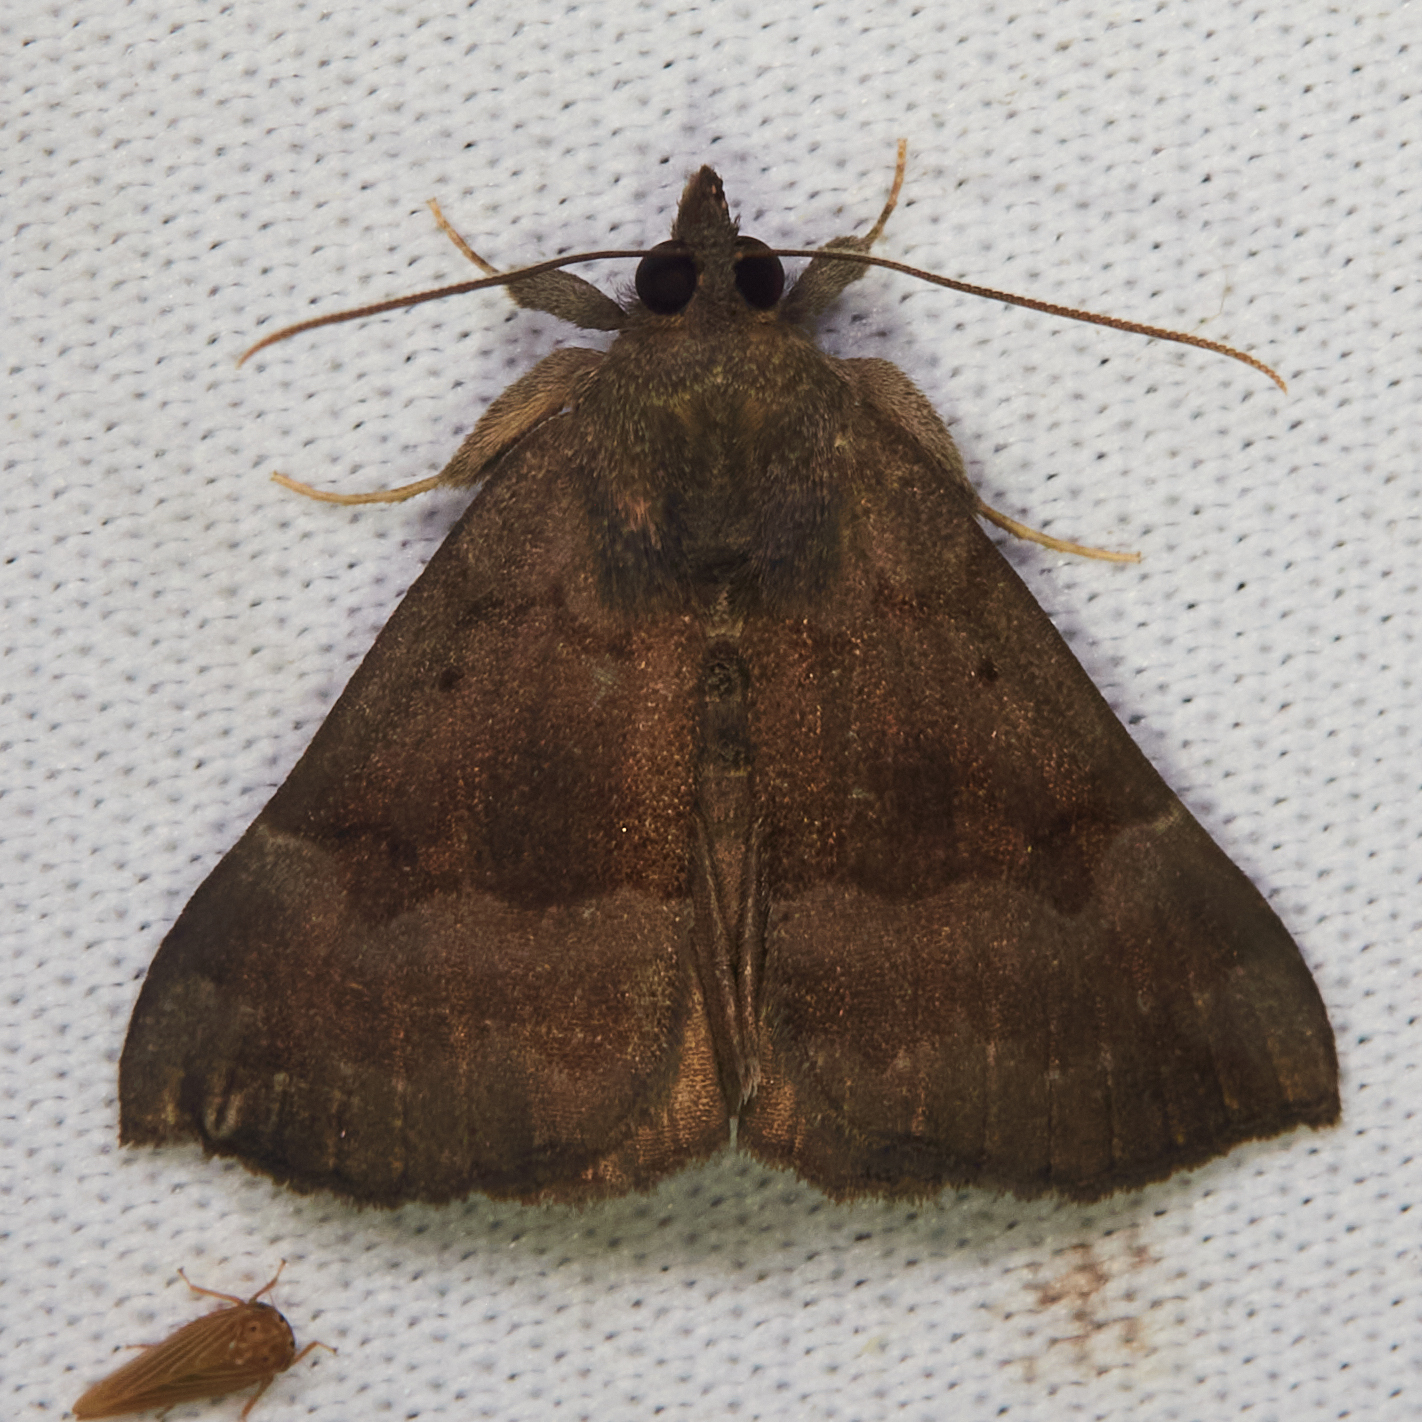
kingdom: Animalia
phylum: Arthropoda
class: Insecta
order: Lepidoptera
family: Erebidae
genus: Hypena
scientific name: Hypena madefactalis
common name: Gray-edged snout
